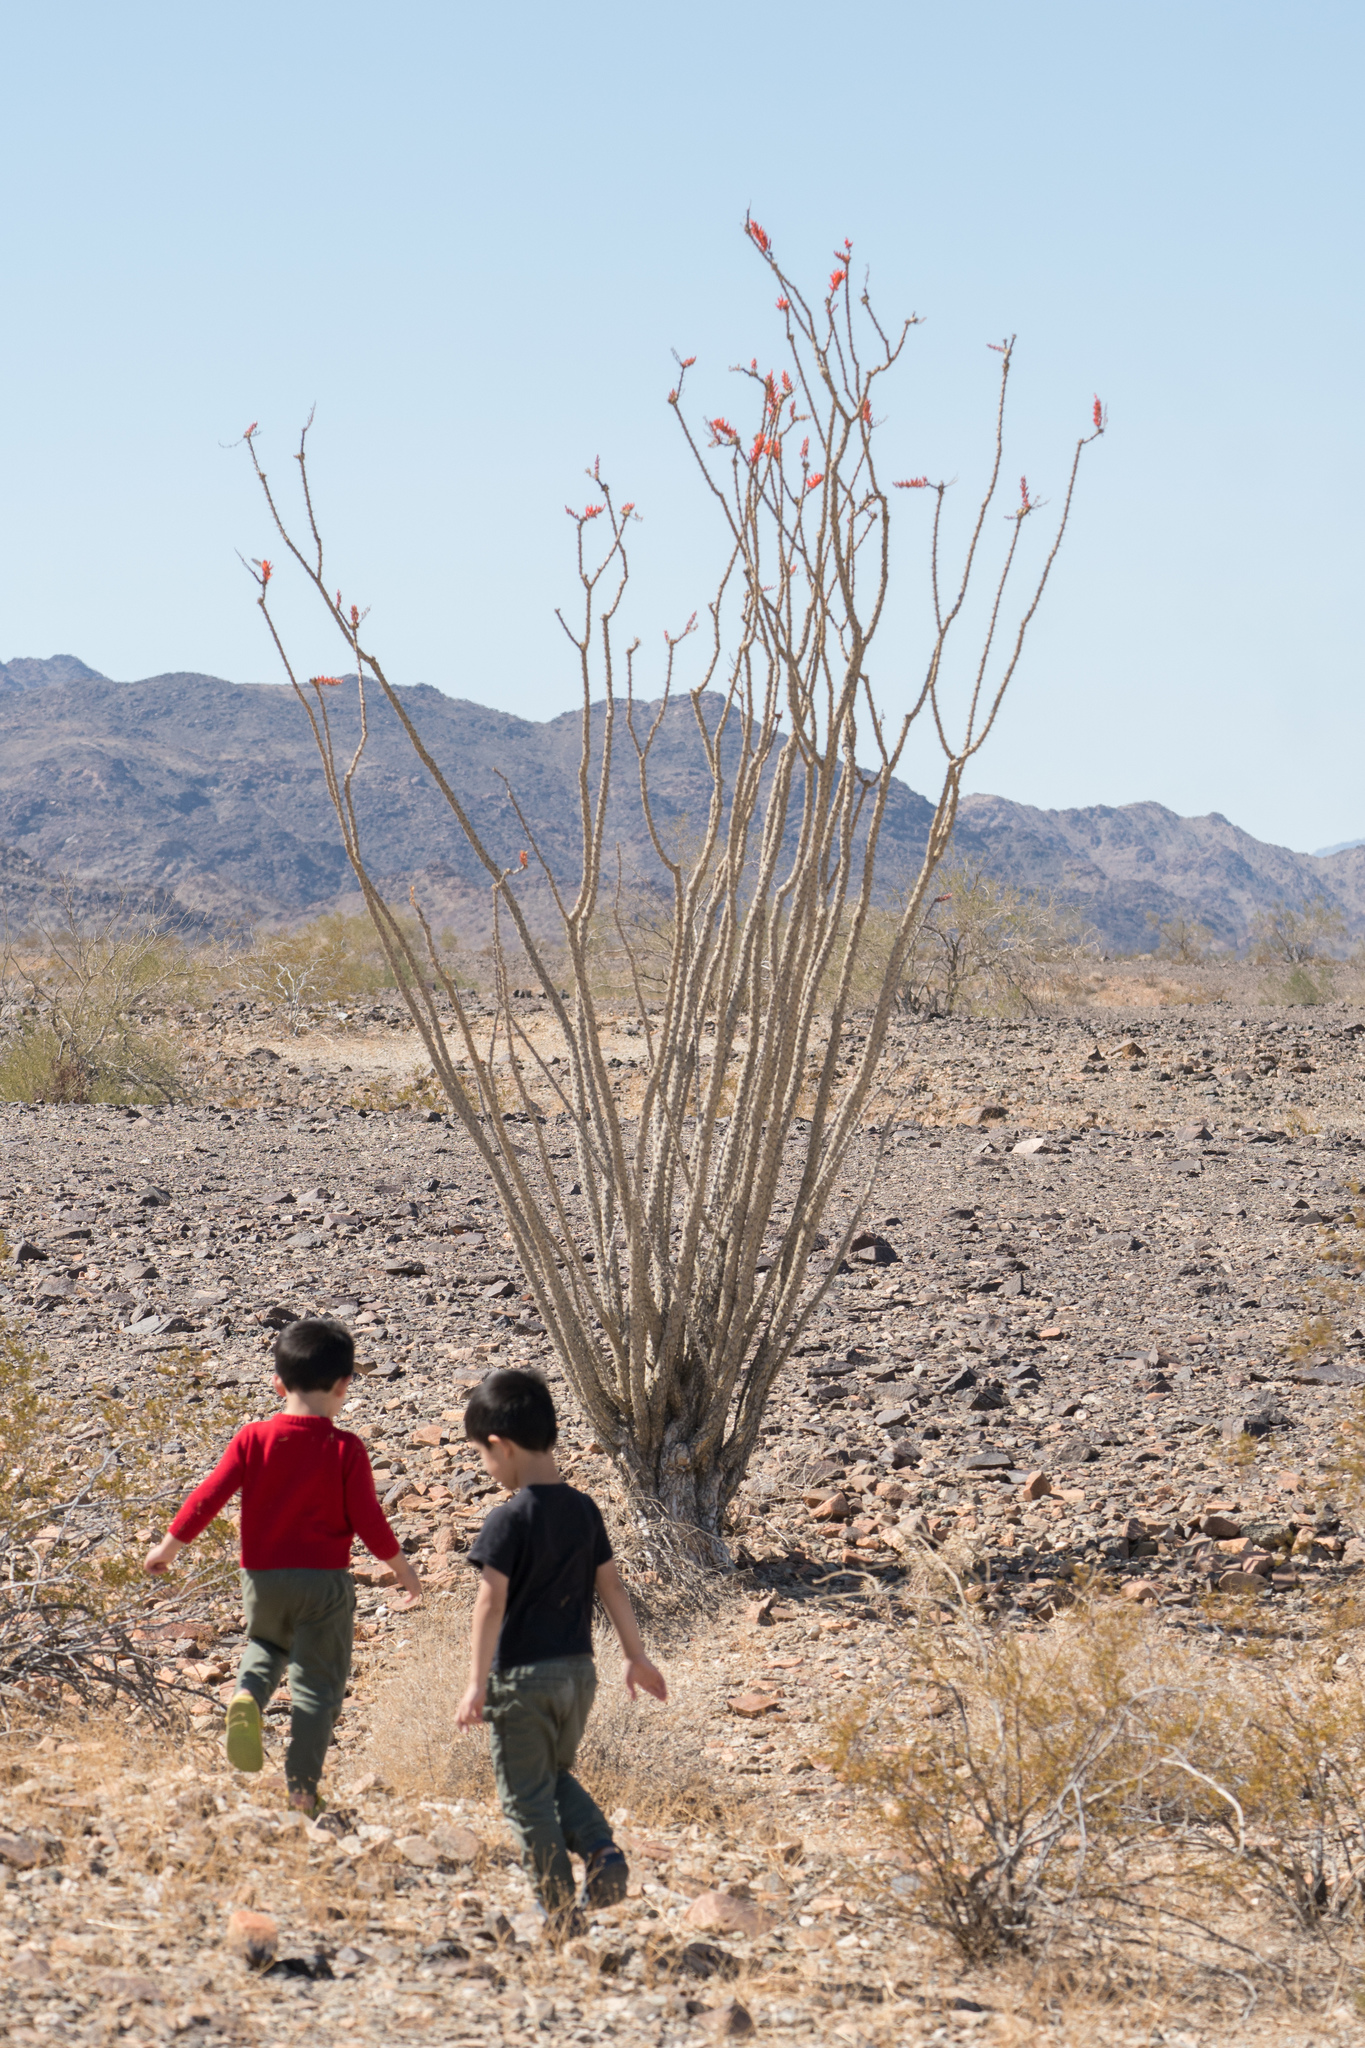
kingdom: Plantae
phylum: Tracheophyta
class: Magnoliopsida
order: Ericales
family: Fouquieriaceae
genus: Fouquieria
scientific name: Fouquieria splendens
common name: Vine-cactus
